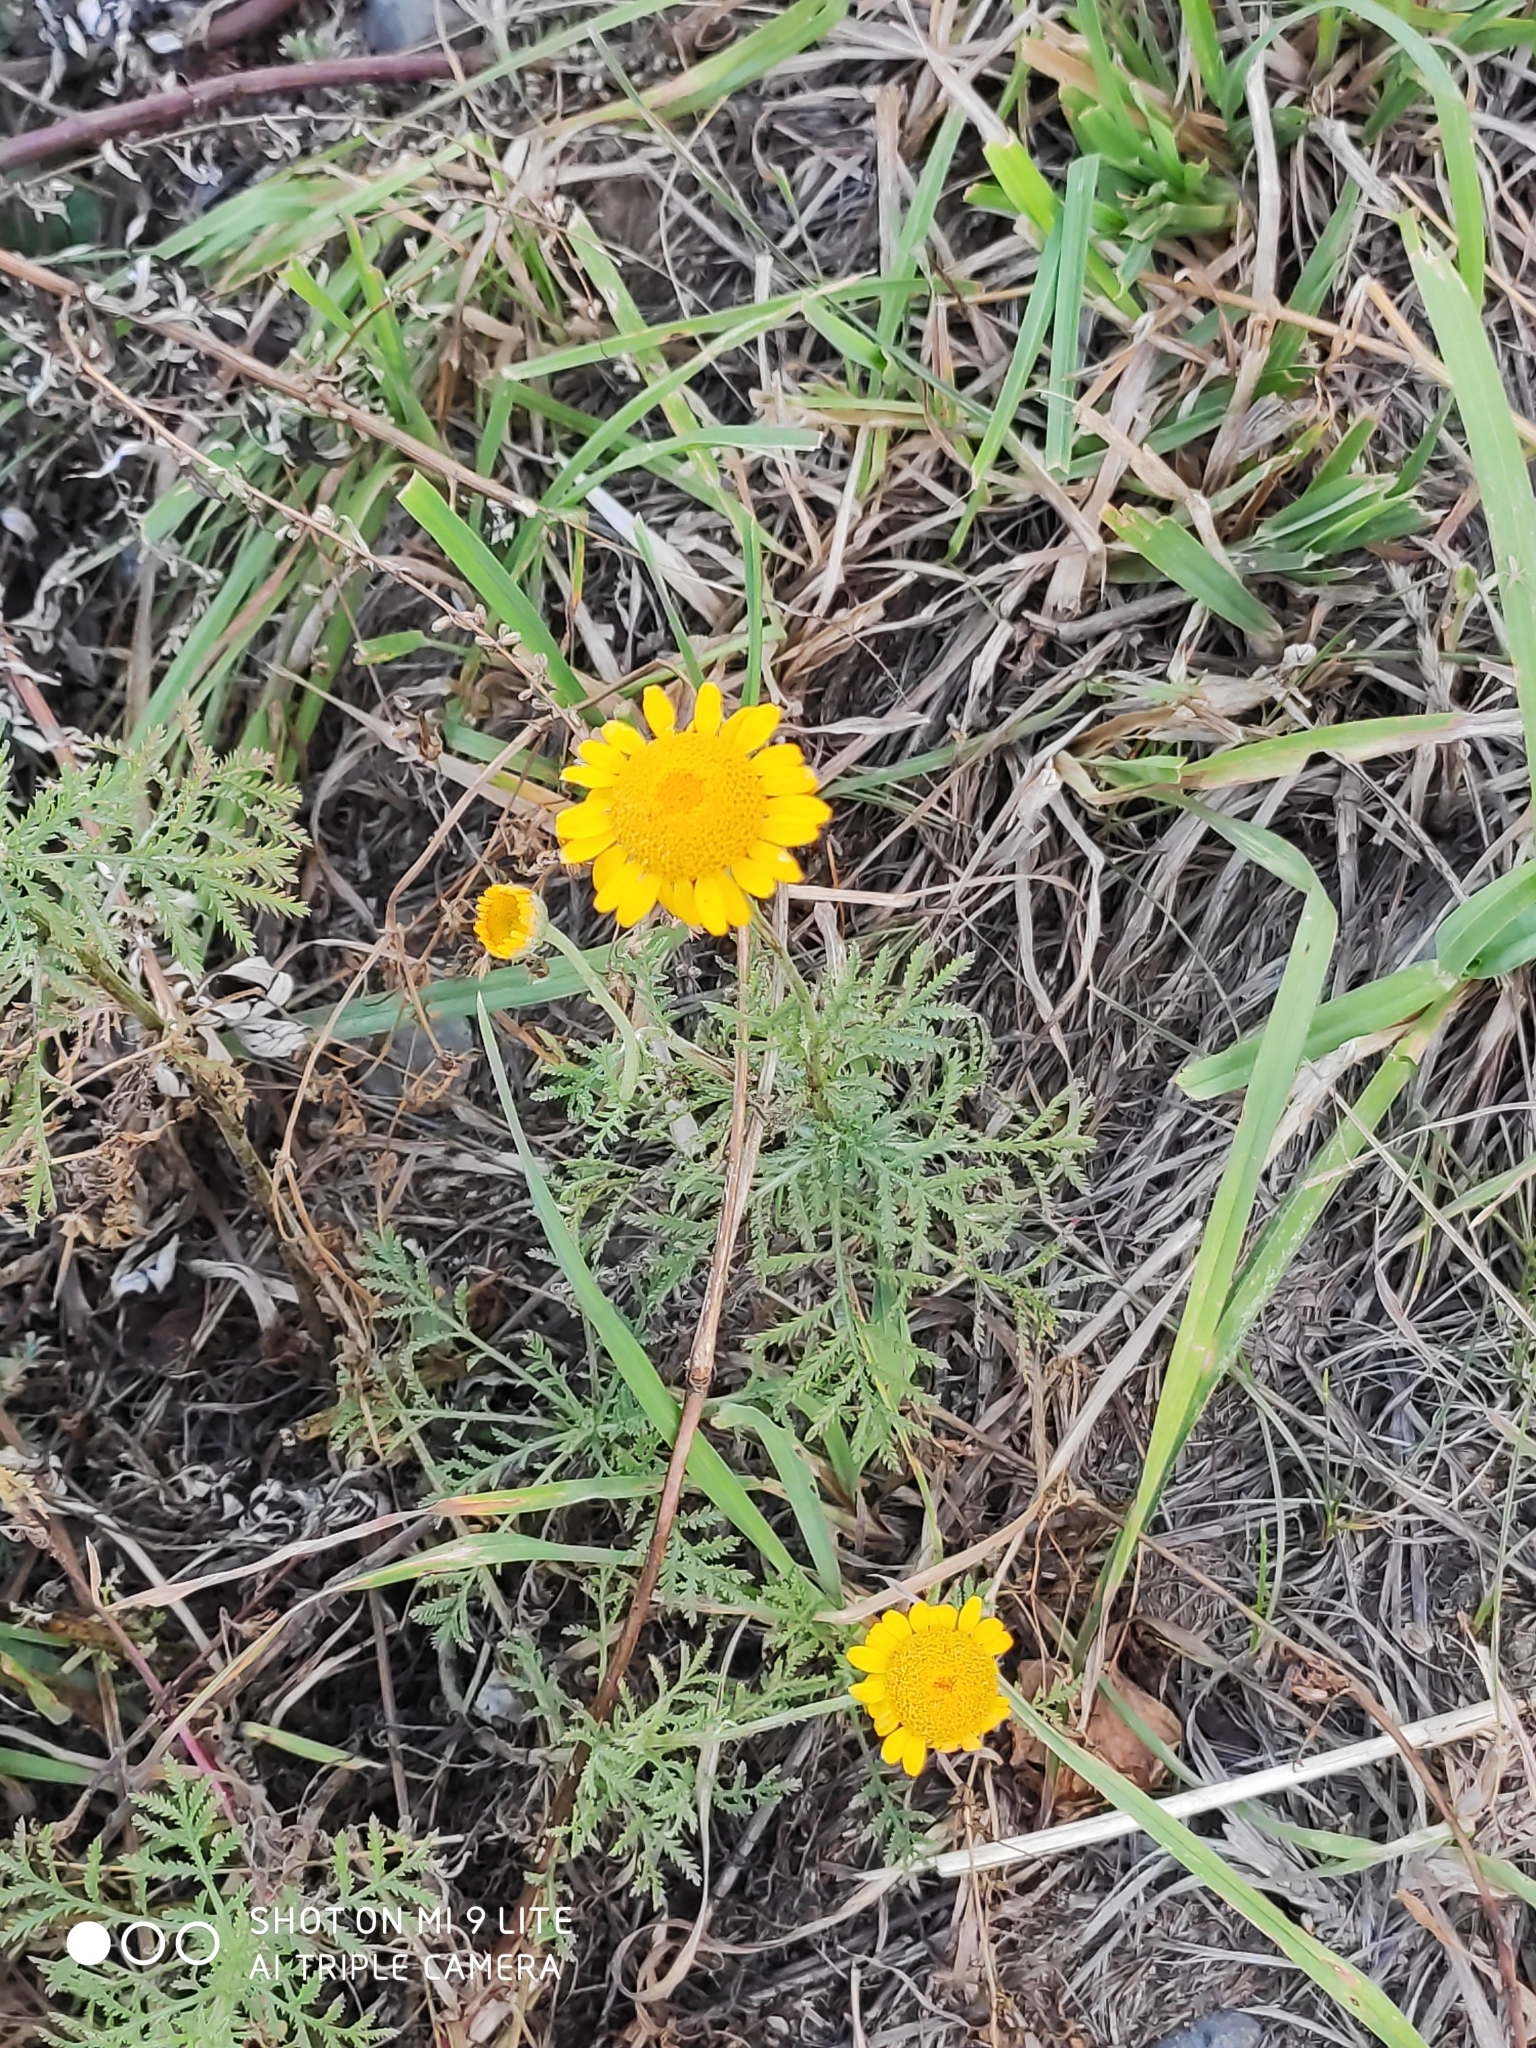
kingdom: Plantae
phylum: Tracheophyta
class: Magnoliopsida
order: Asterales
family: Asteraceae
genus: Cota
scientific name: Cota tinctoria
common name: Golden chamomile
